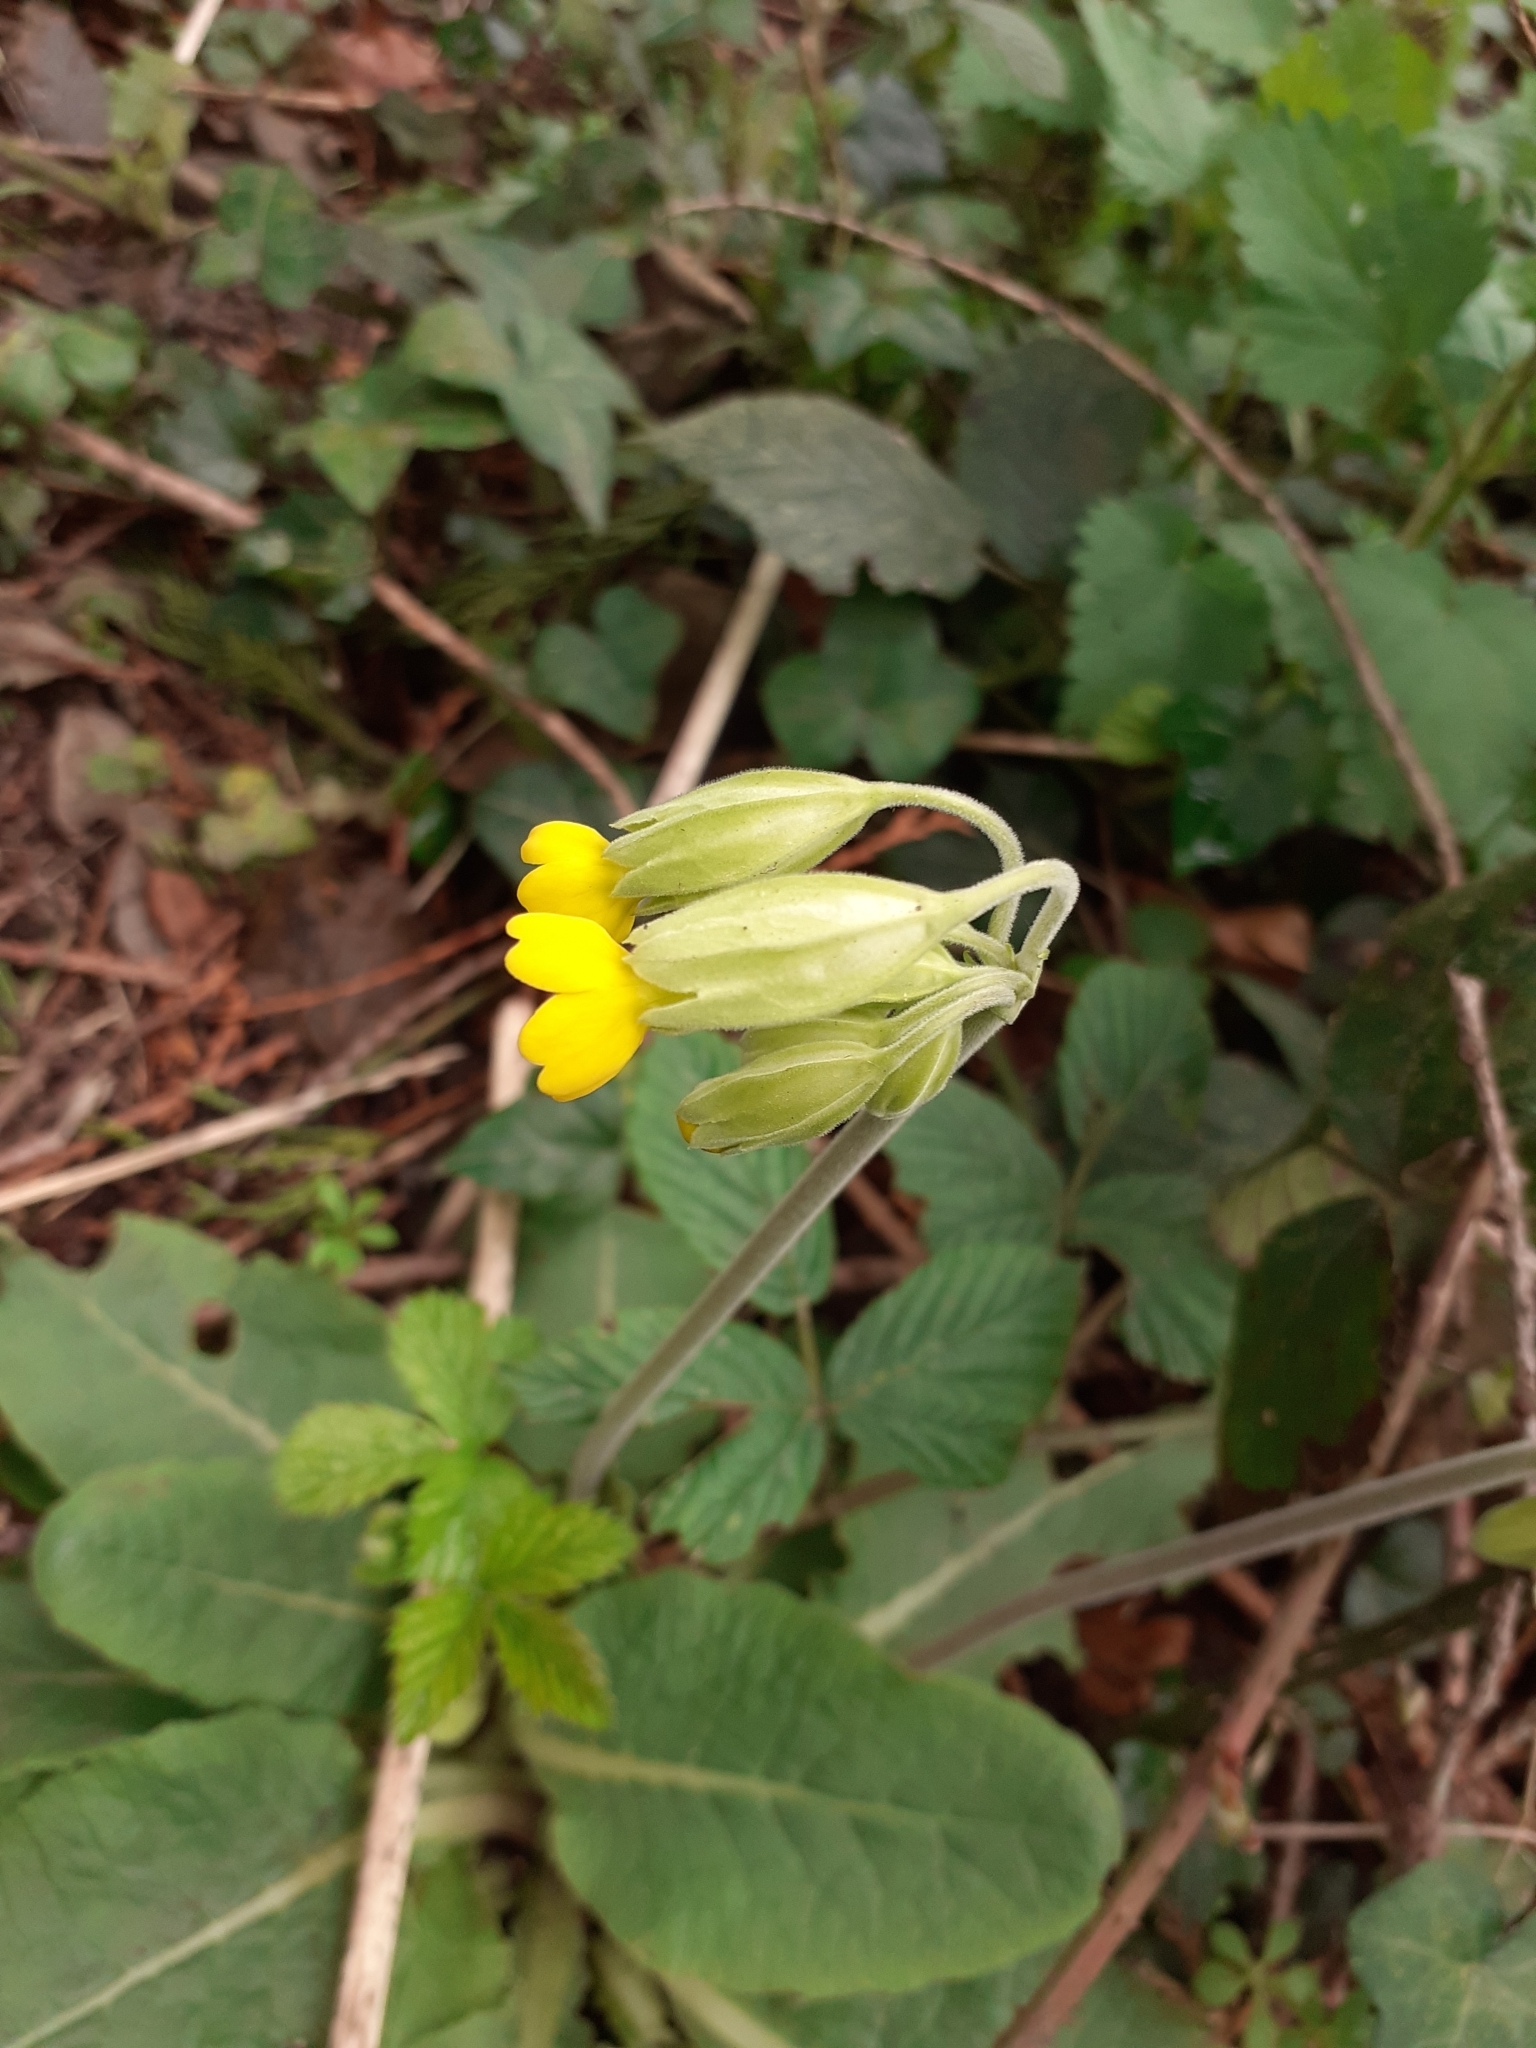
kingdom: Plantae
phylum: Tracheophyta
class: Magnoliopsida
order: Ericales
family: Primulaceae
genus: Primula
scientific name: Primula veris
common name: Cowslip
